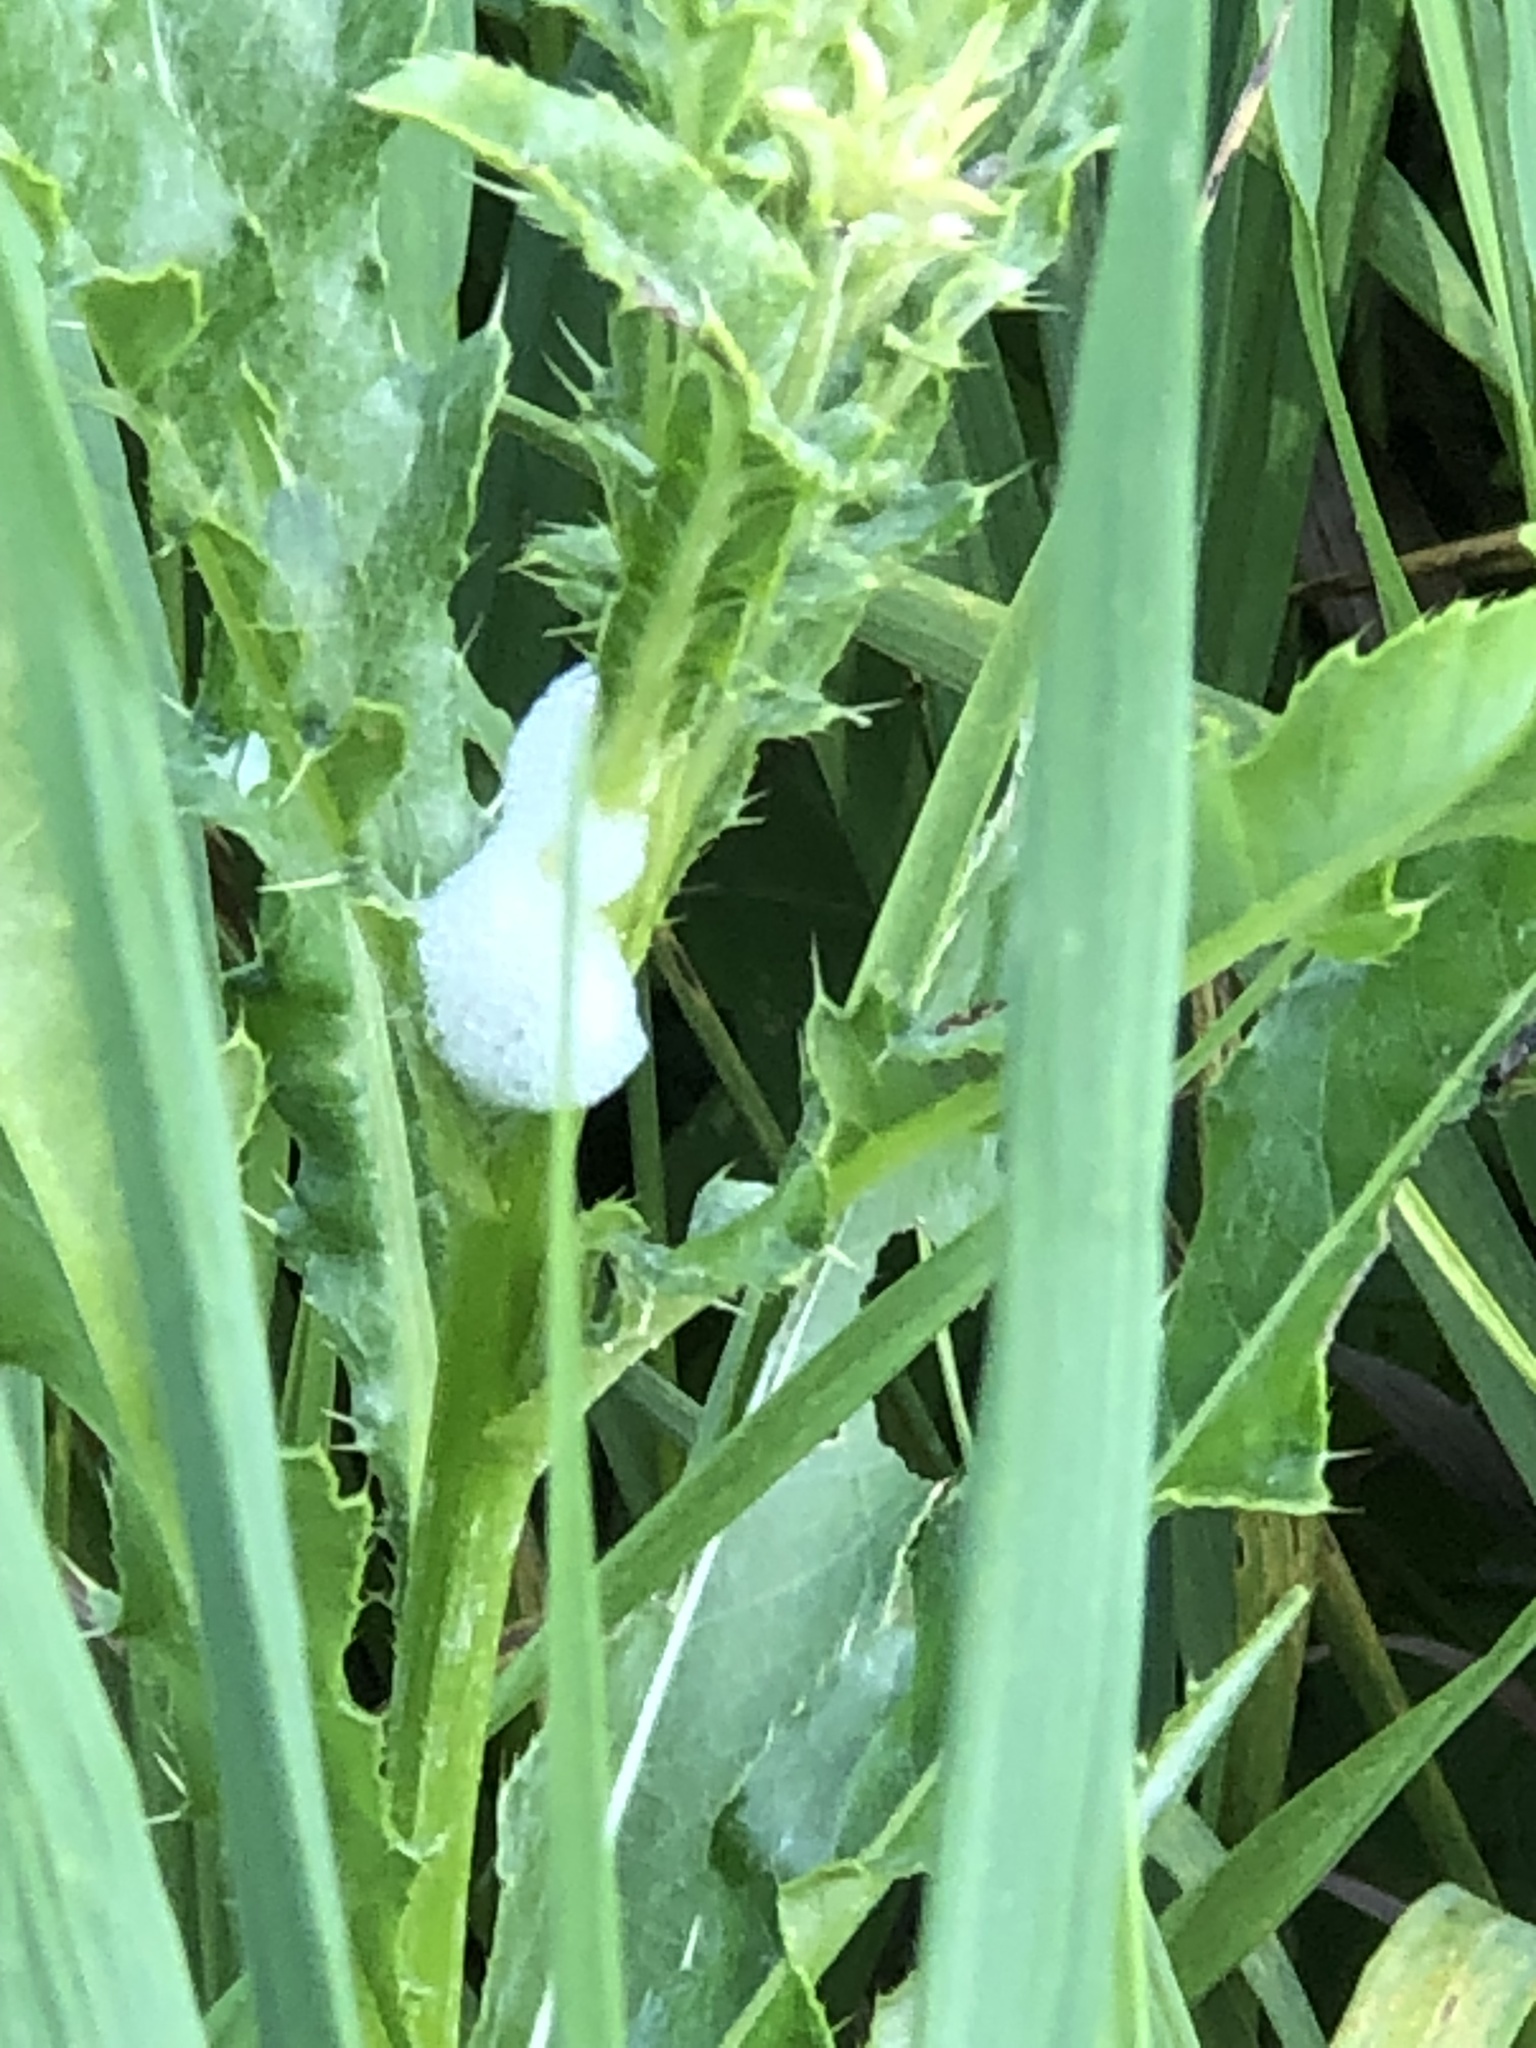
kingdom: Animalia
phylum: Arthropoda
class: Insecta
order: Hemiptera
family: Aphrophoridae
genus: Philaenus
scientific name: Philaenus spumarius
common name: Meadow spittlebug
